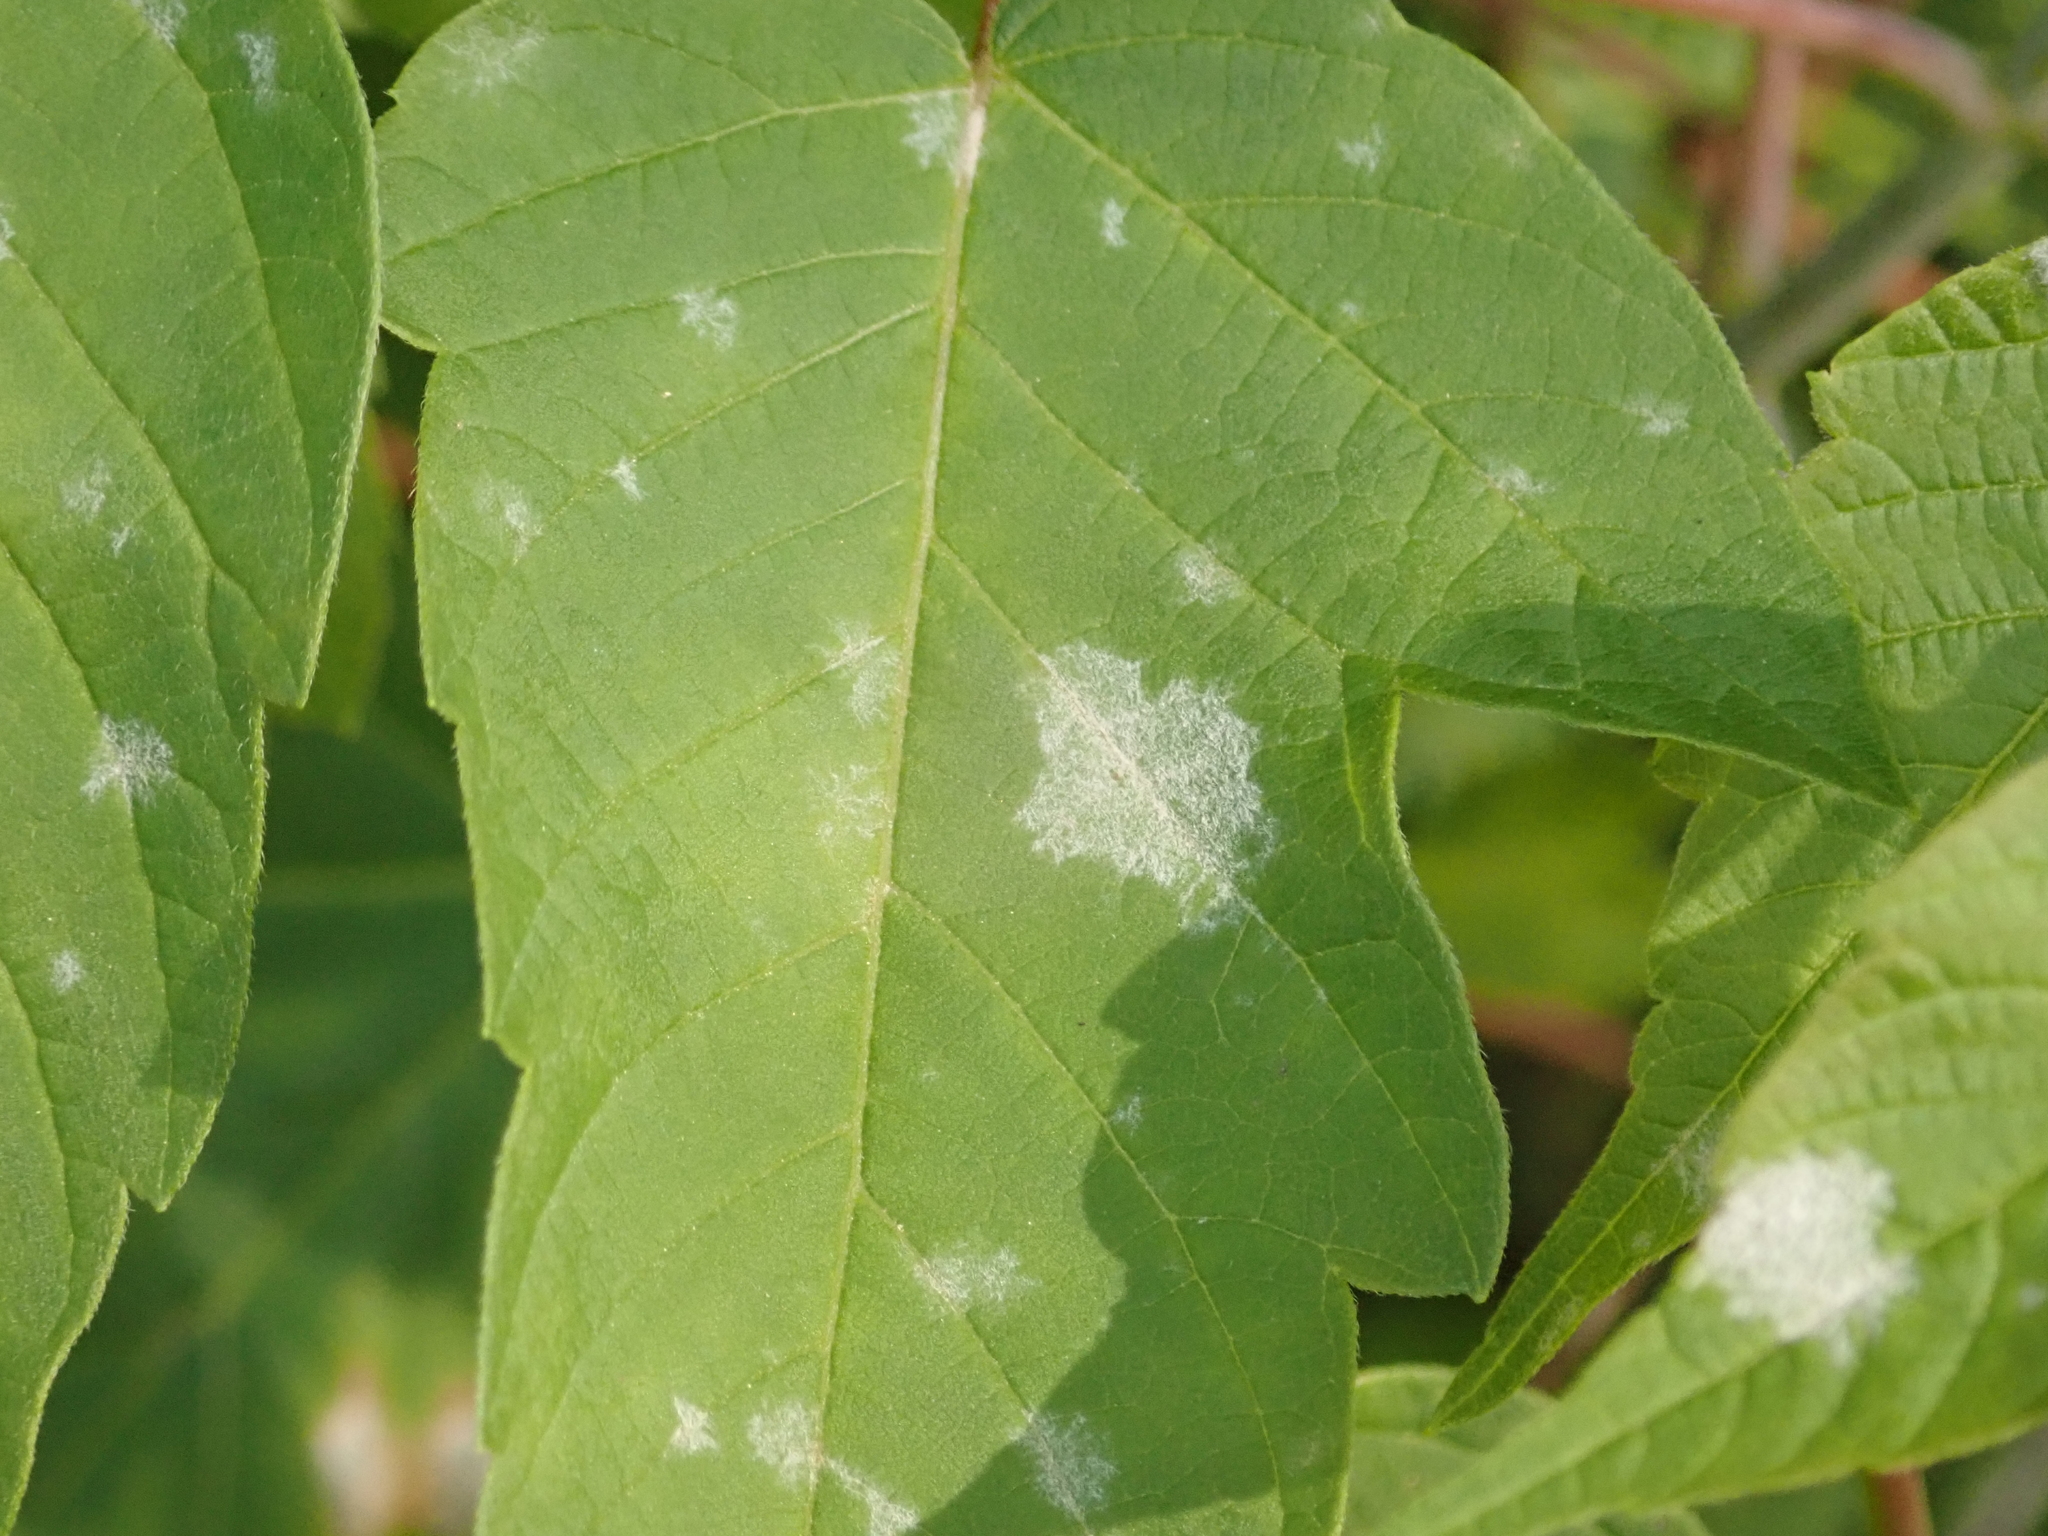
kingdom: Fungi
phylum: Ascomycota
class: Leotiomycetes
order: Helotiales
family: Erysiphaceae
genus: Sawadaea
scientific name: Sawadaea bicornis
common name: Maple mildew
